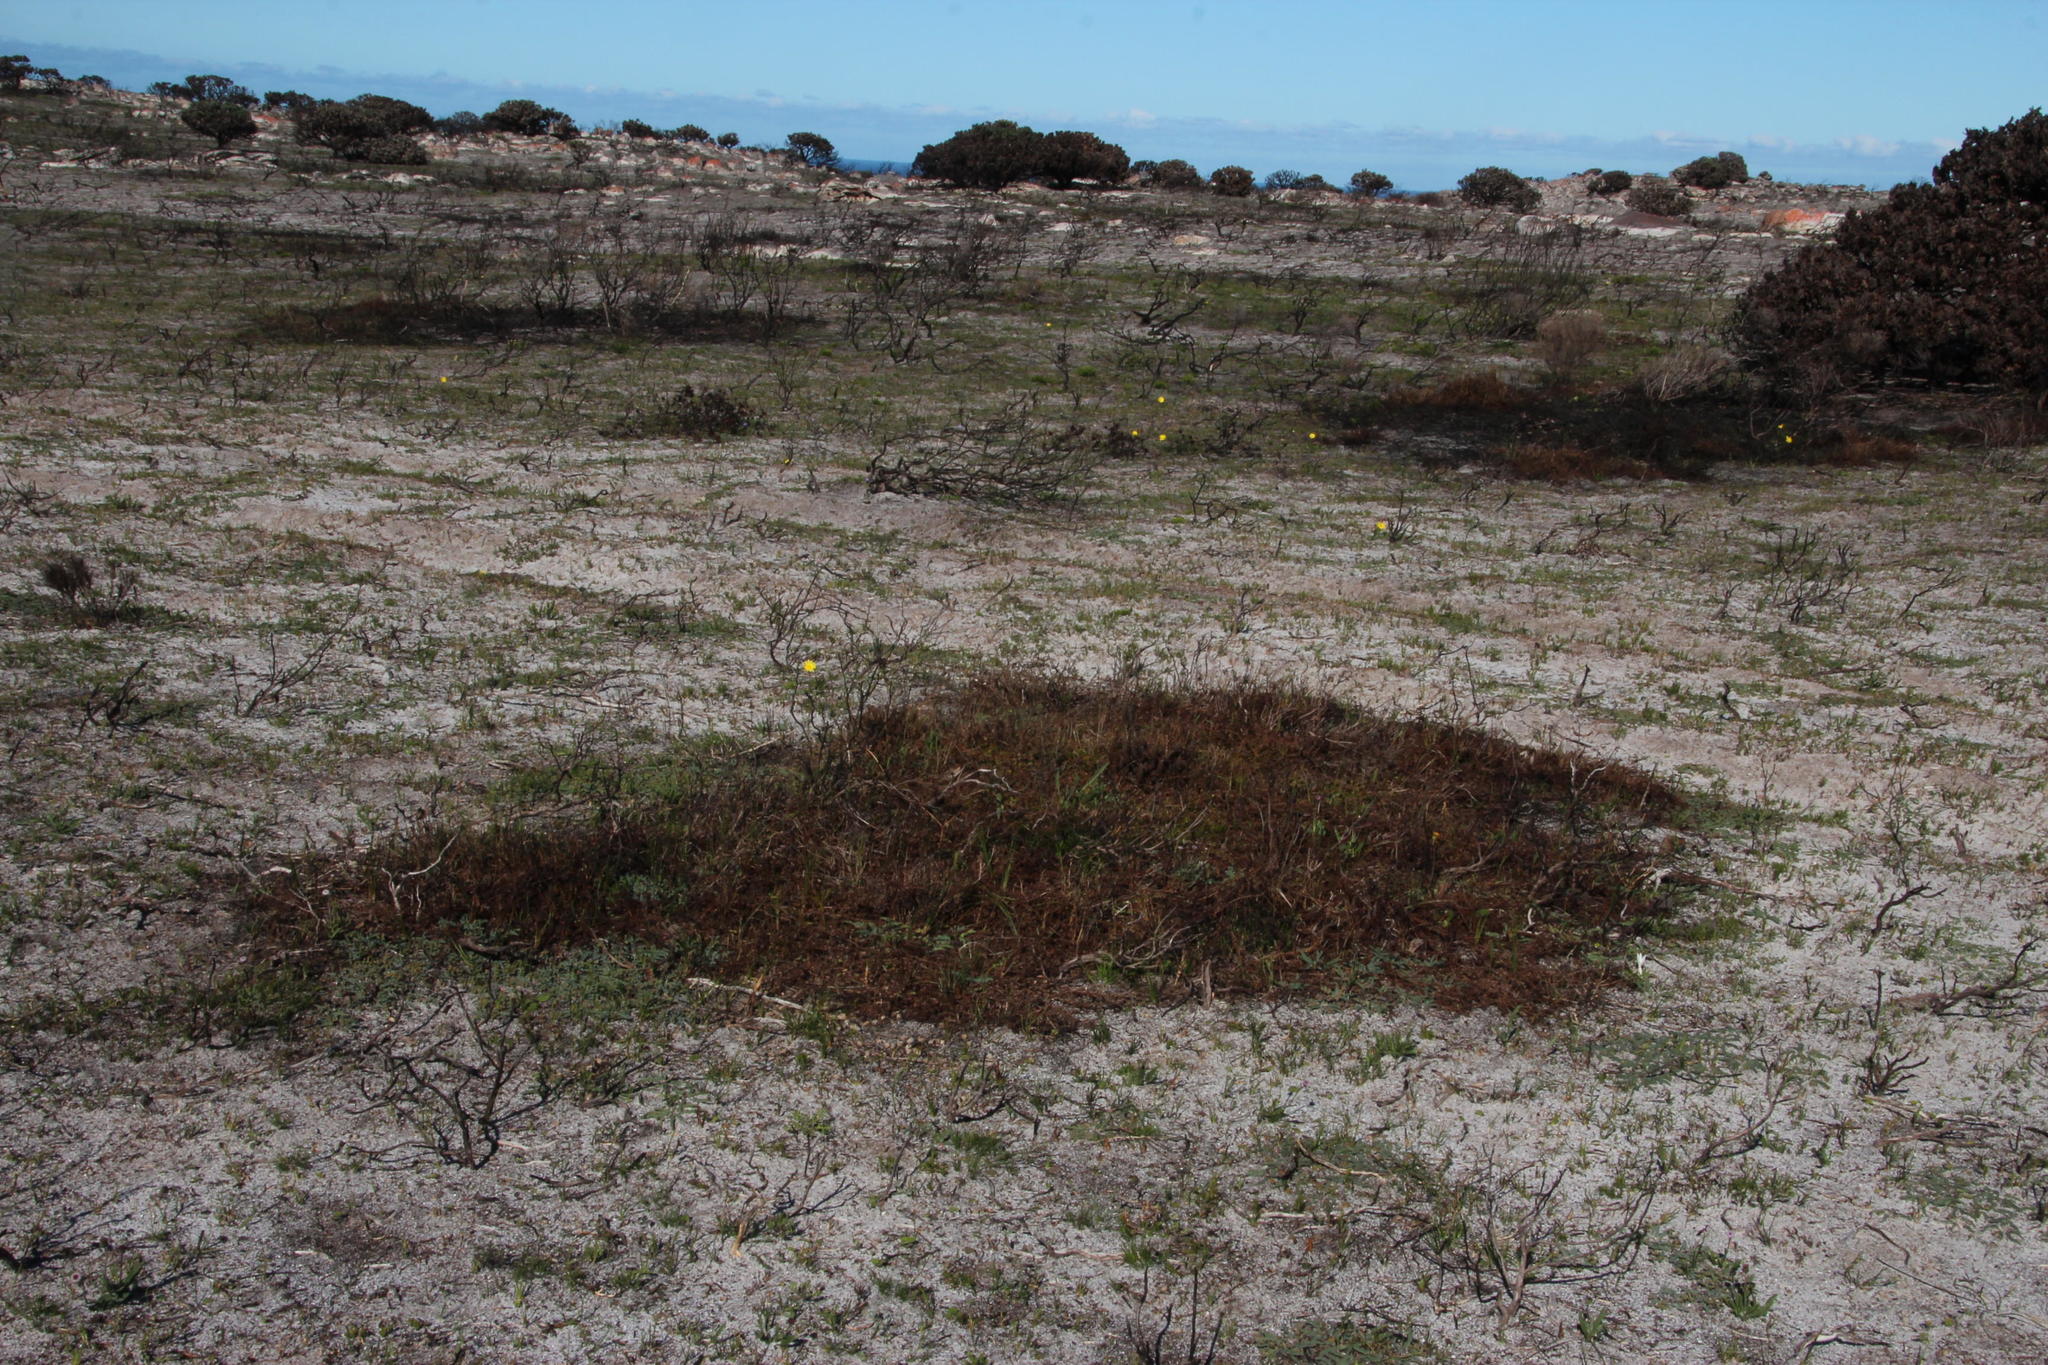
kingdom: Plantae
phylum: Tracheophyta
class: Magnoliopsida
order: Proteales
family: Proteaceae
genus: Diastella
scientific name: Diastella divaricata
